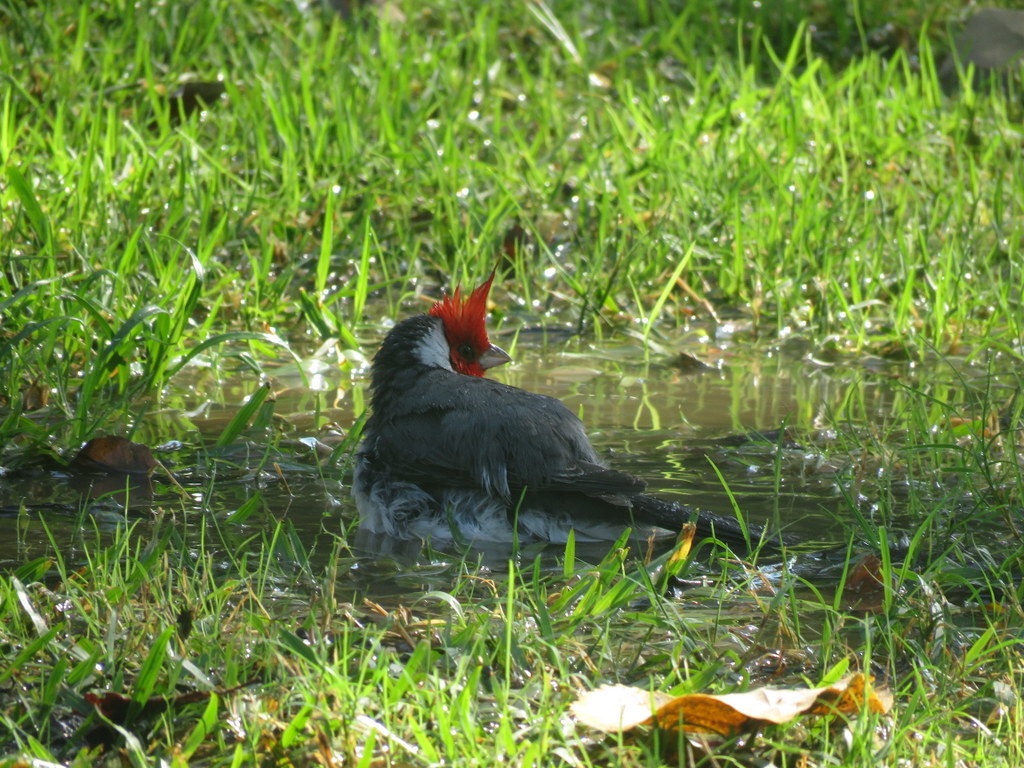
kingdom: Animalia
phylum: Chordata
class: Aves
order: Passeriformes
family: Thraupidae
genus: Paroaria
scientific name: Paroaria coronata
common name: Red-crested cardinal
